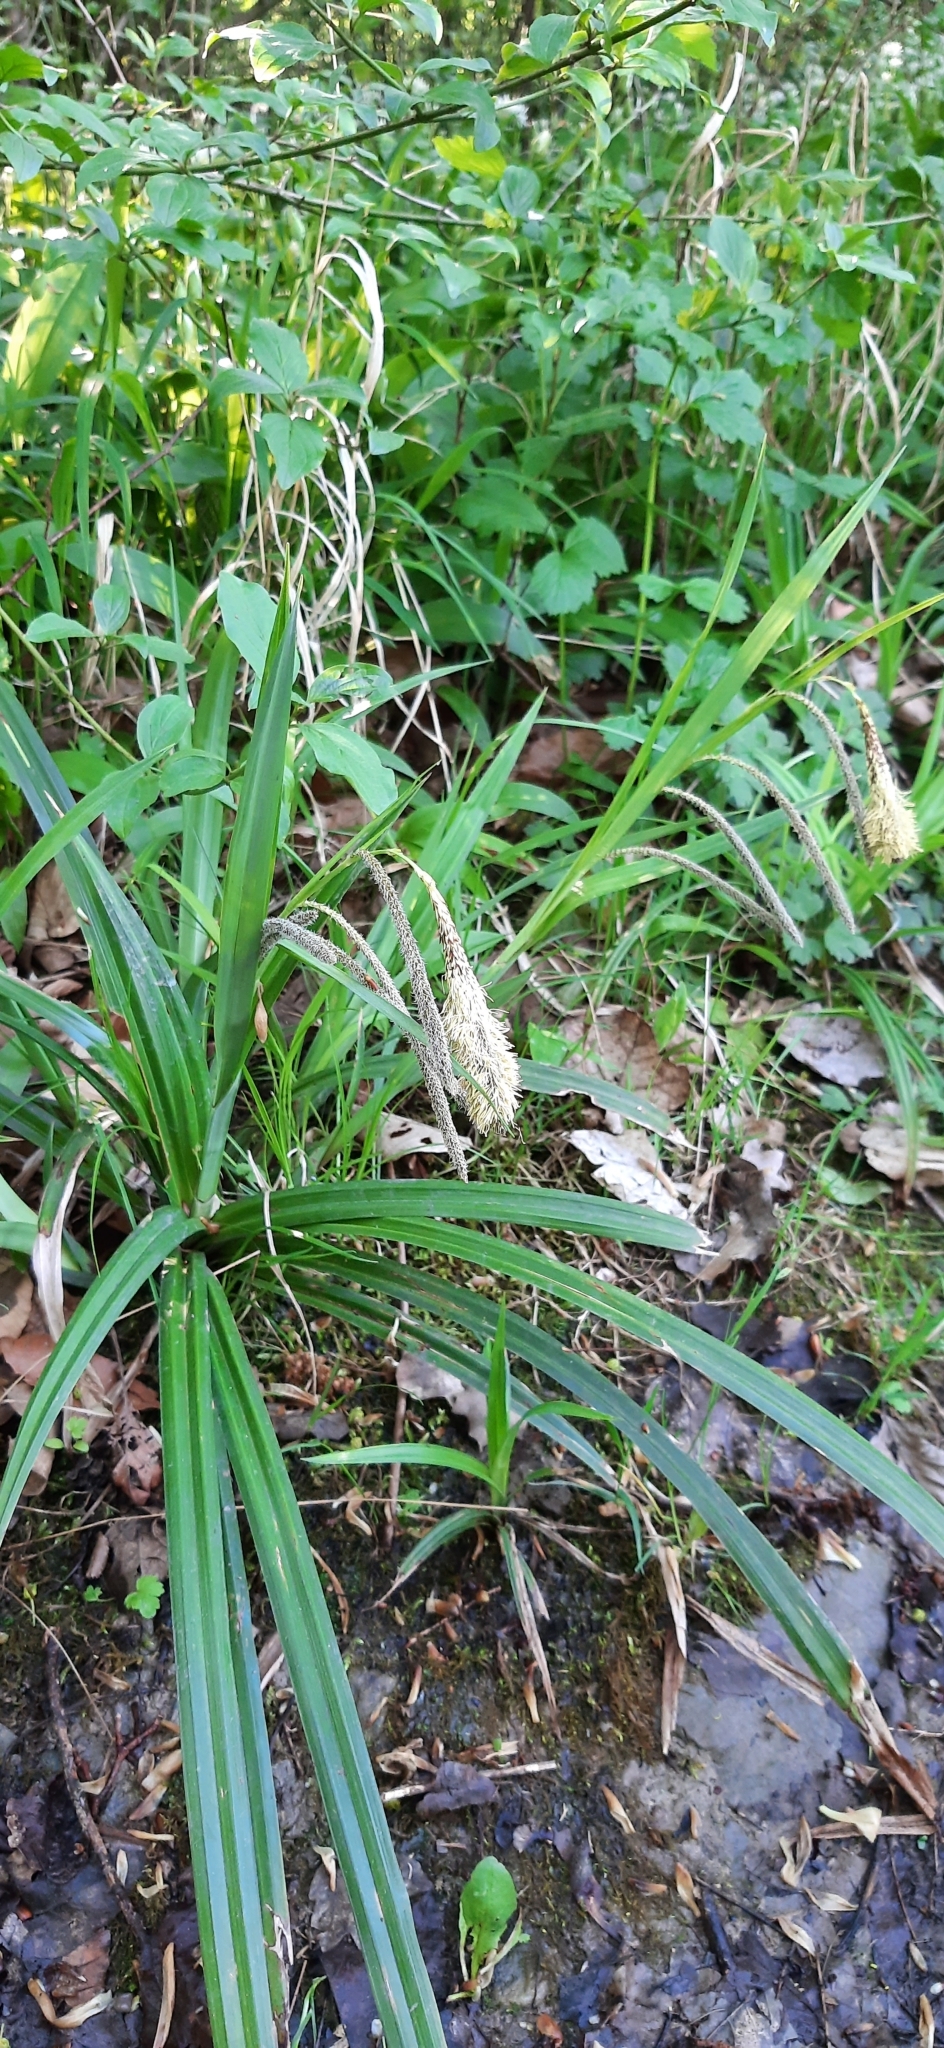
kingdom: Plantae
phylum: Tracheophyta
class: Liliopsida
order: Poales
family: Cyperaceae
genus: Carex
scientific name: Carex pendula
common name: Pendulous sedge
